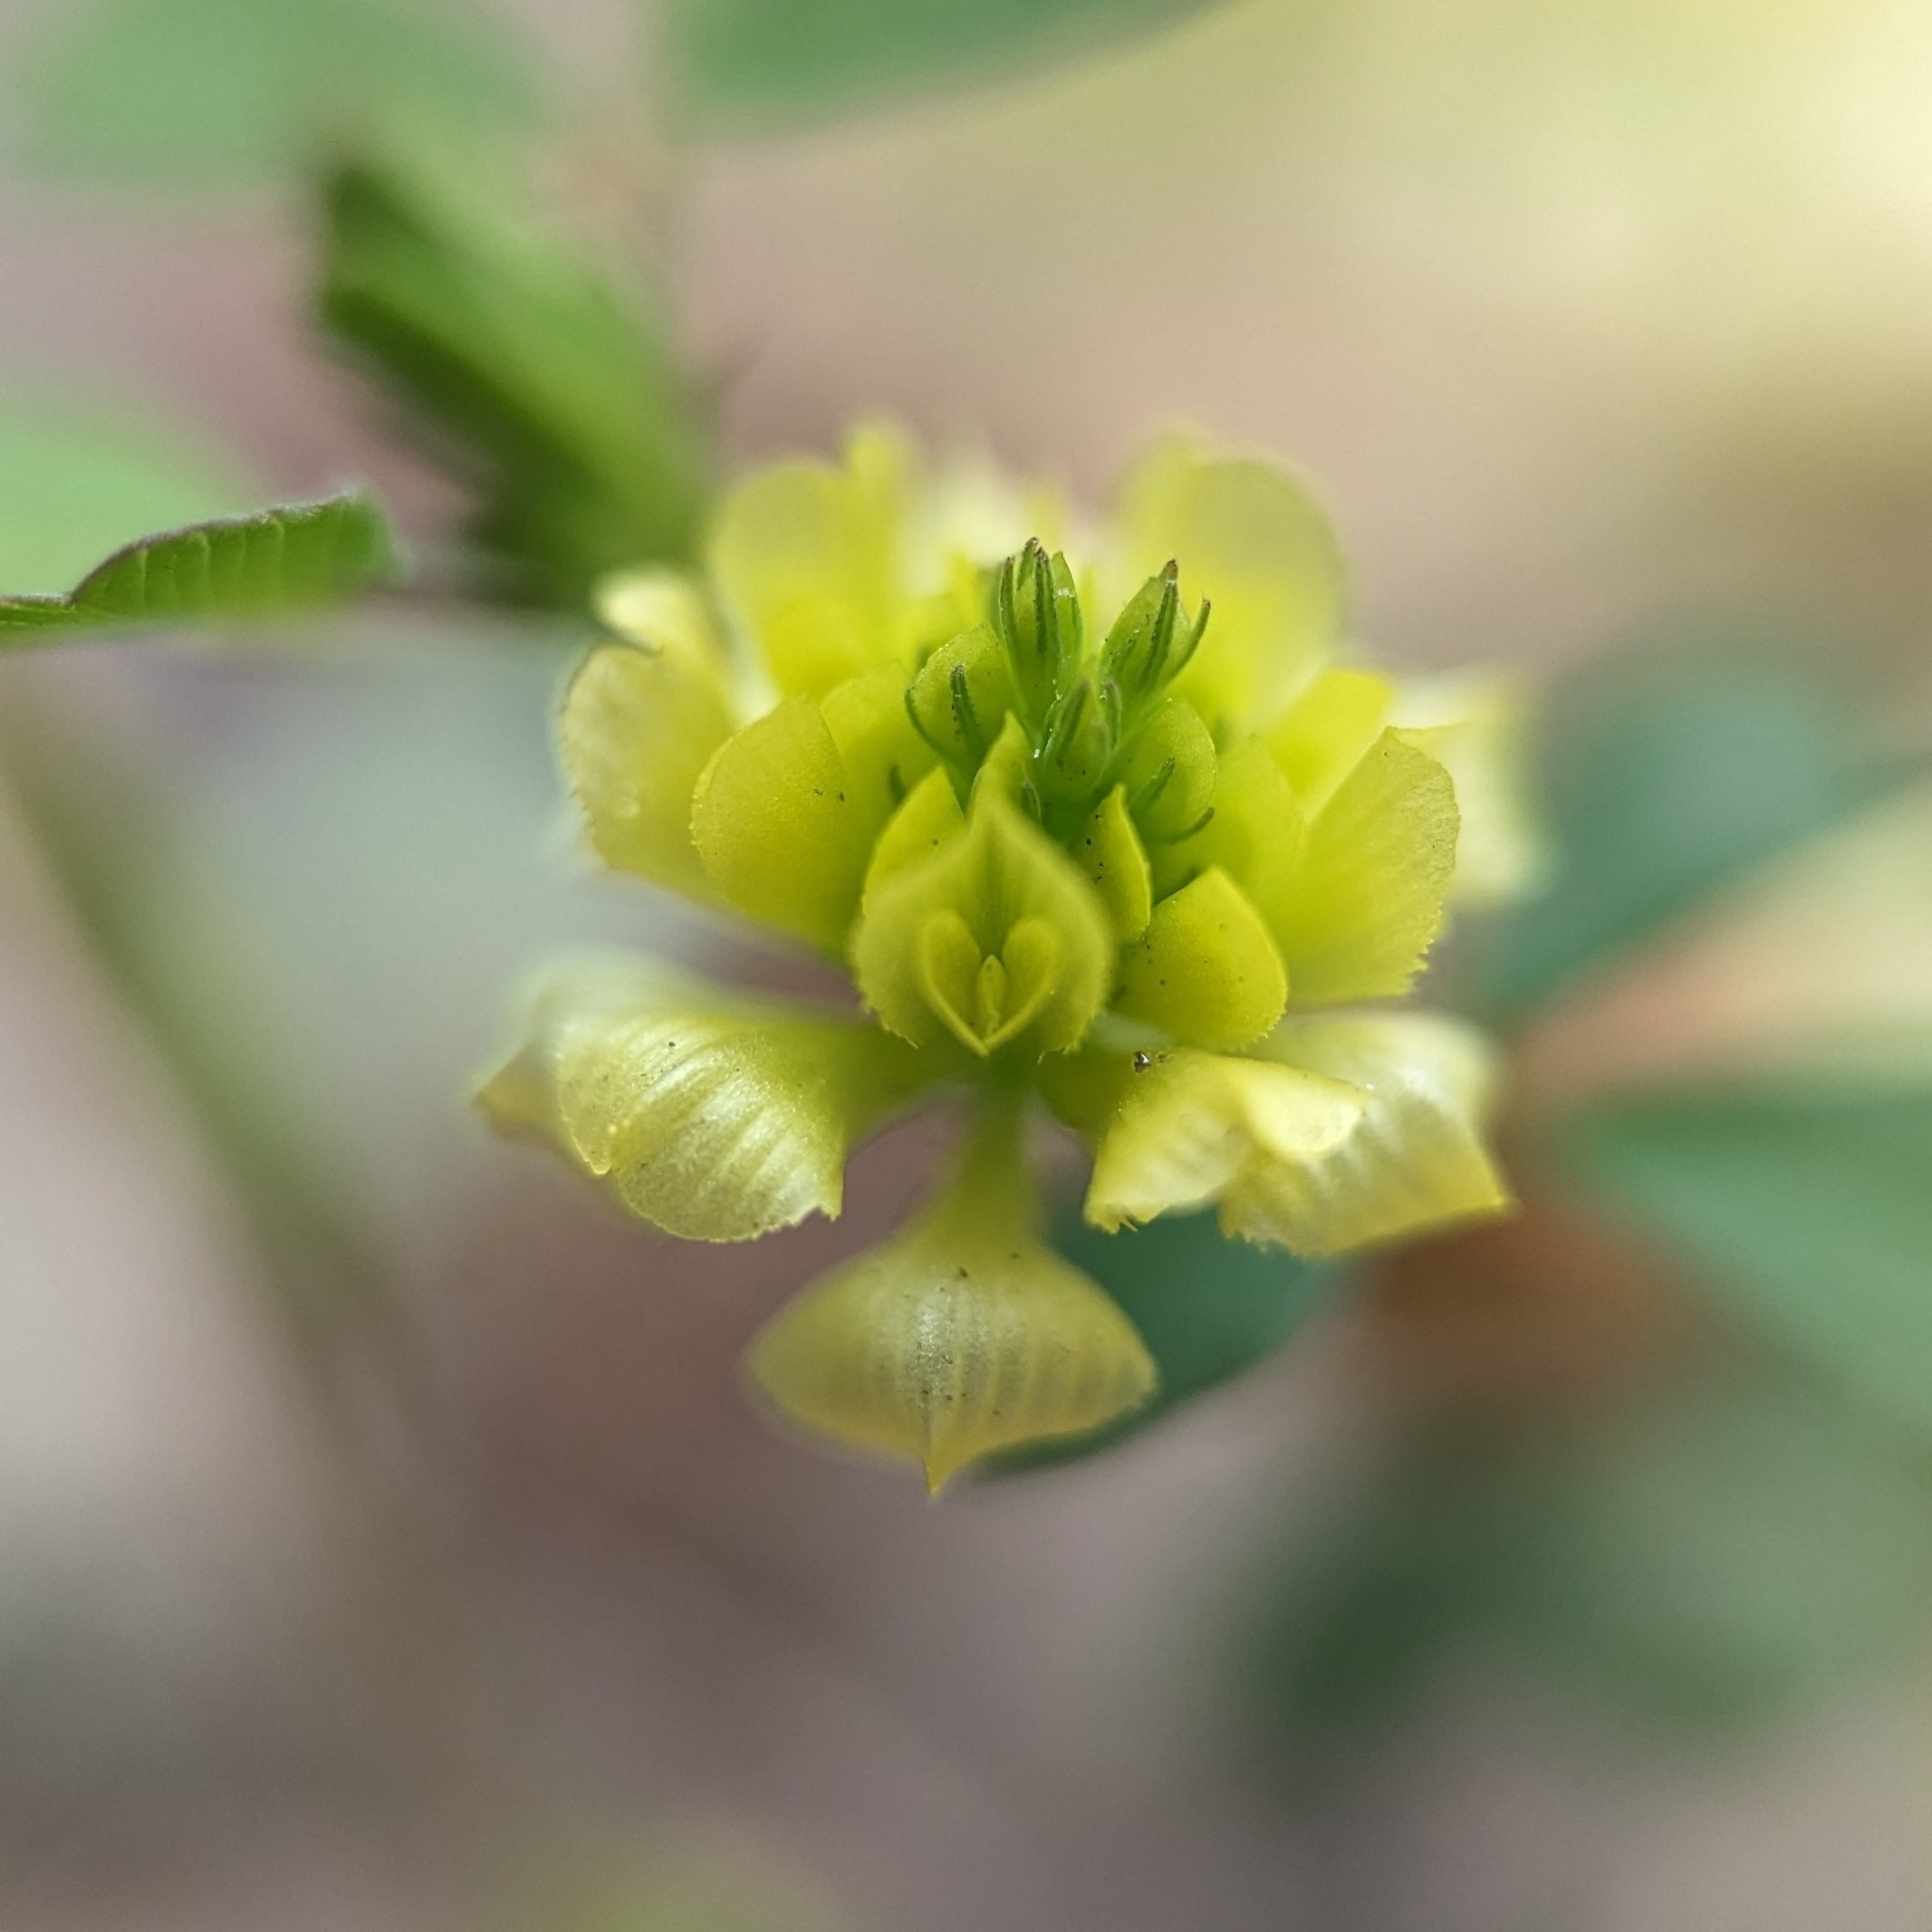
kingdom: Plantae
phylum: Tracheophyta
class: Magnoliopsida
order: Fabales
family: Fabaceae
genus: Trifolium
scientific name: Trifolium campestre
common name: Field clover
